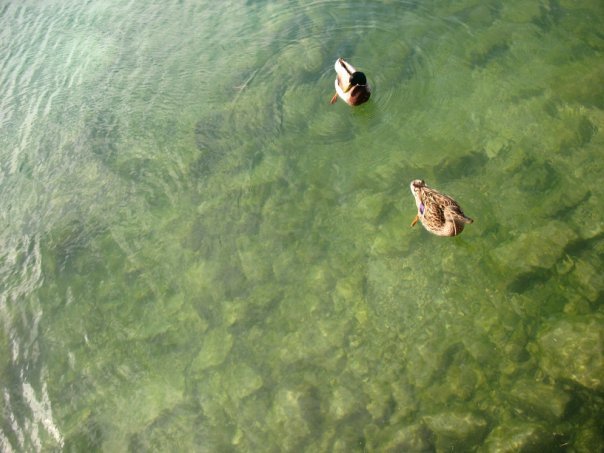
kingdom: Animalia
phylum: Chordata
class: Aves
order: Anseriformes
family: Anatidae
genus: Anas
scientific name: Anas platyrhynchos
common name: Mallard
